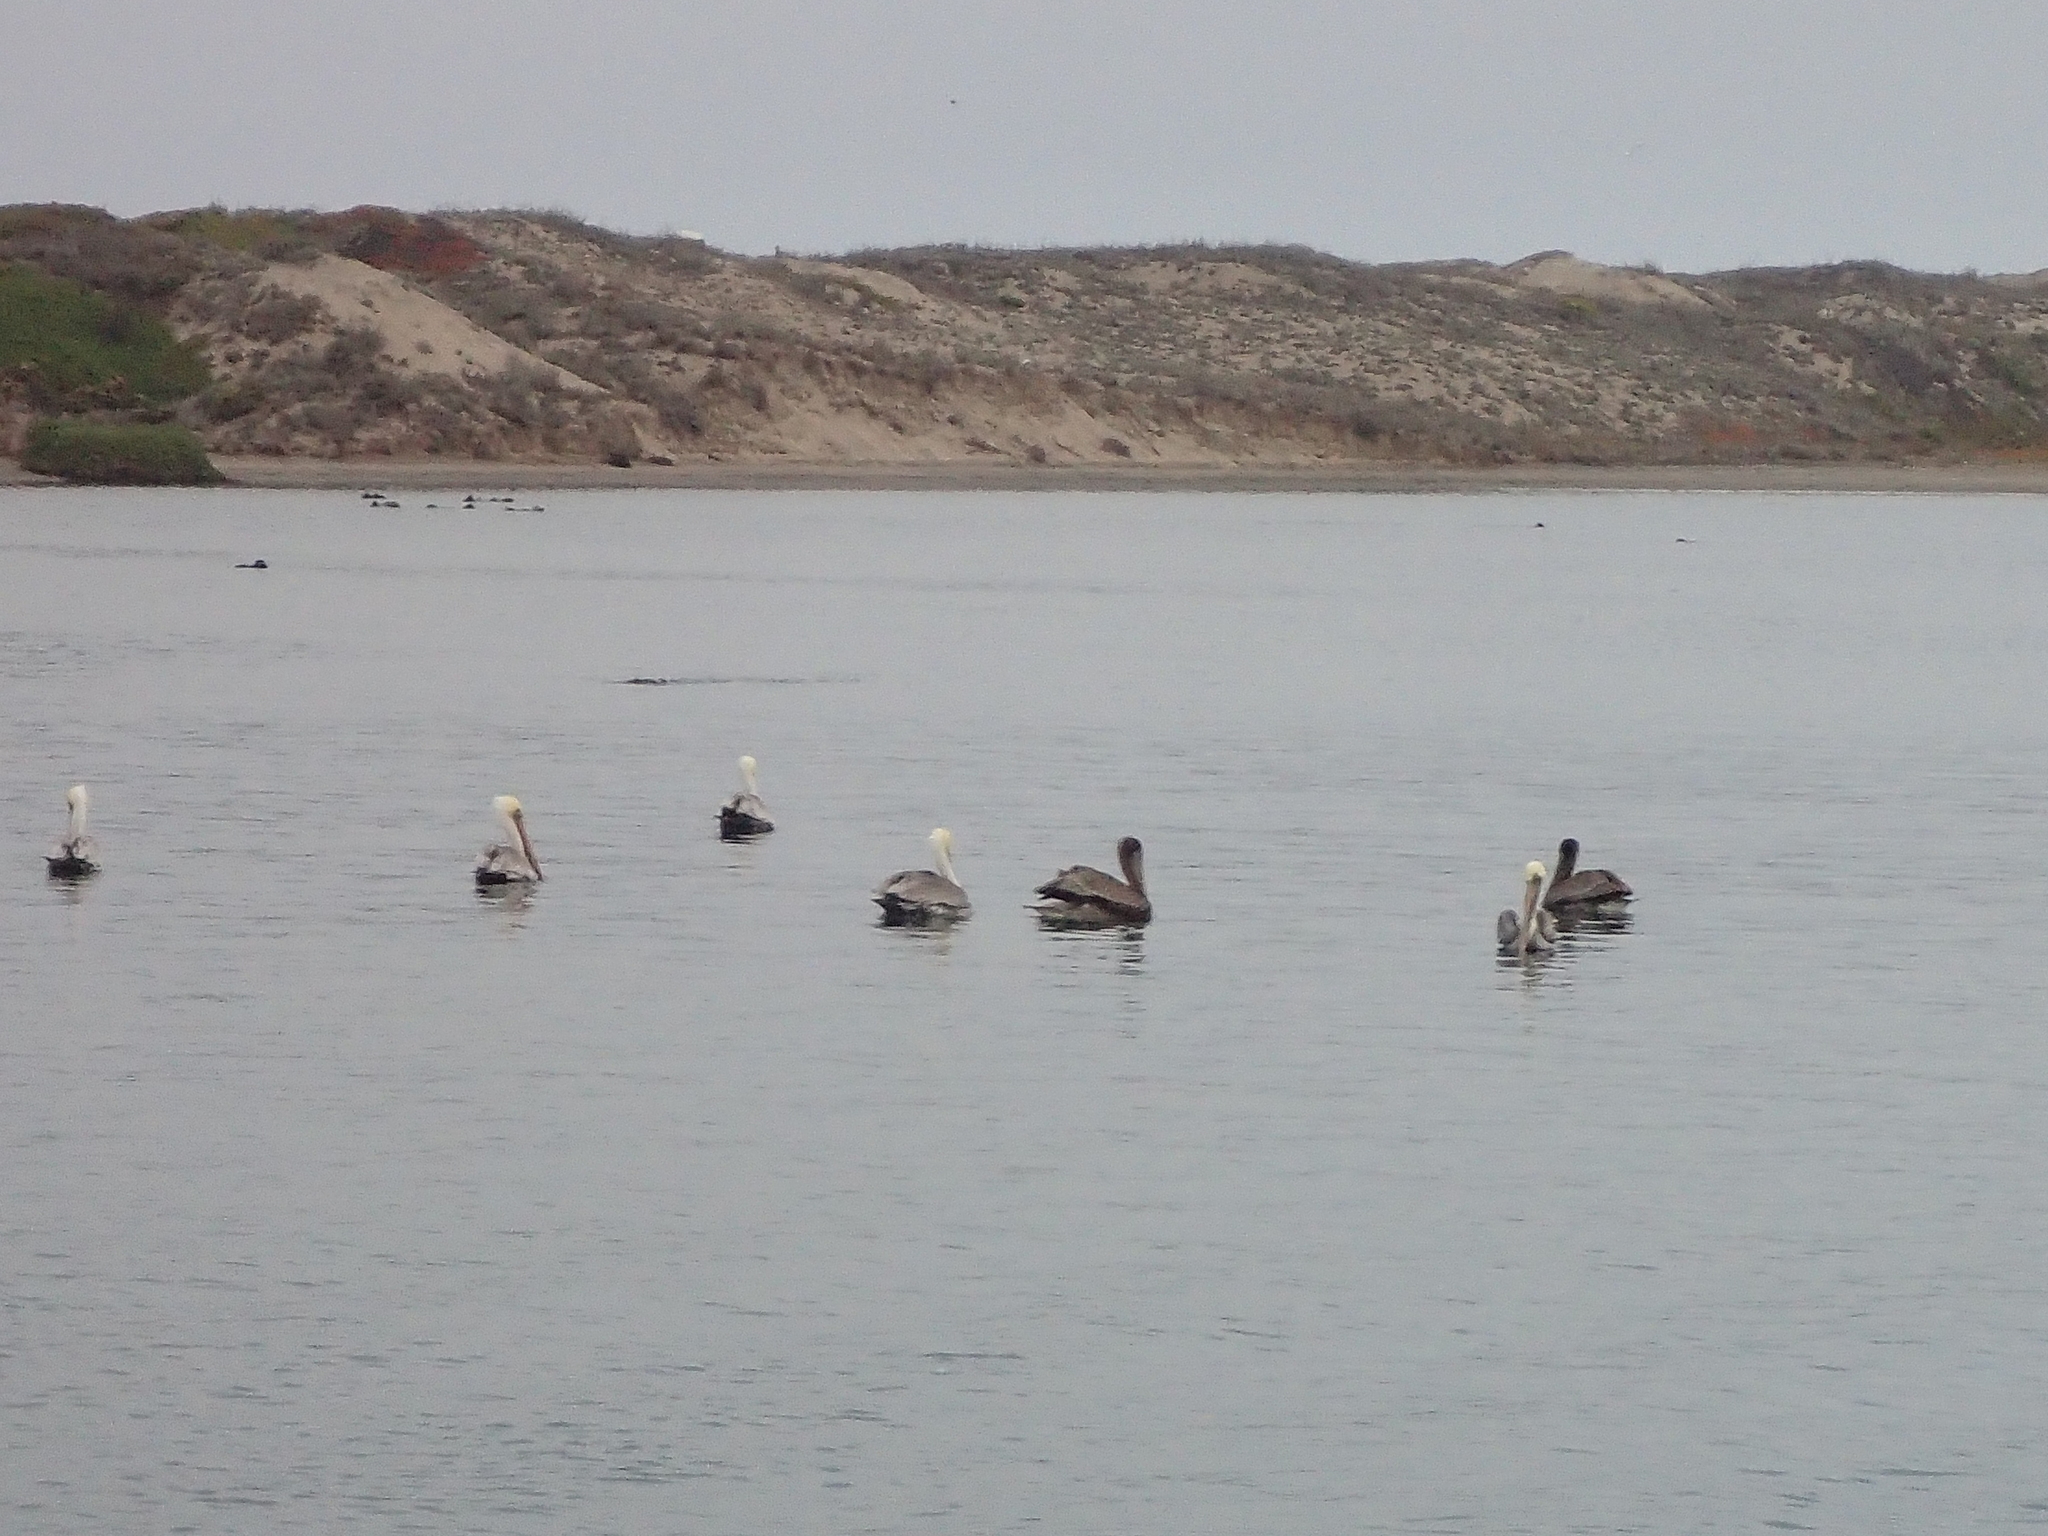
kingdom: Animalia
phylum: Chordata
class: Aves
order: Pelecaniformes
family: Pelecanidae
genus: Pelecanus
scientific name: Pelecanus occidentalis
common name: Brown pelican
